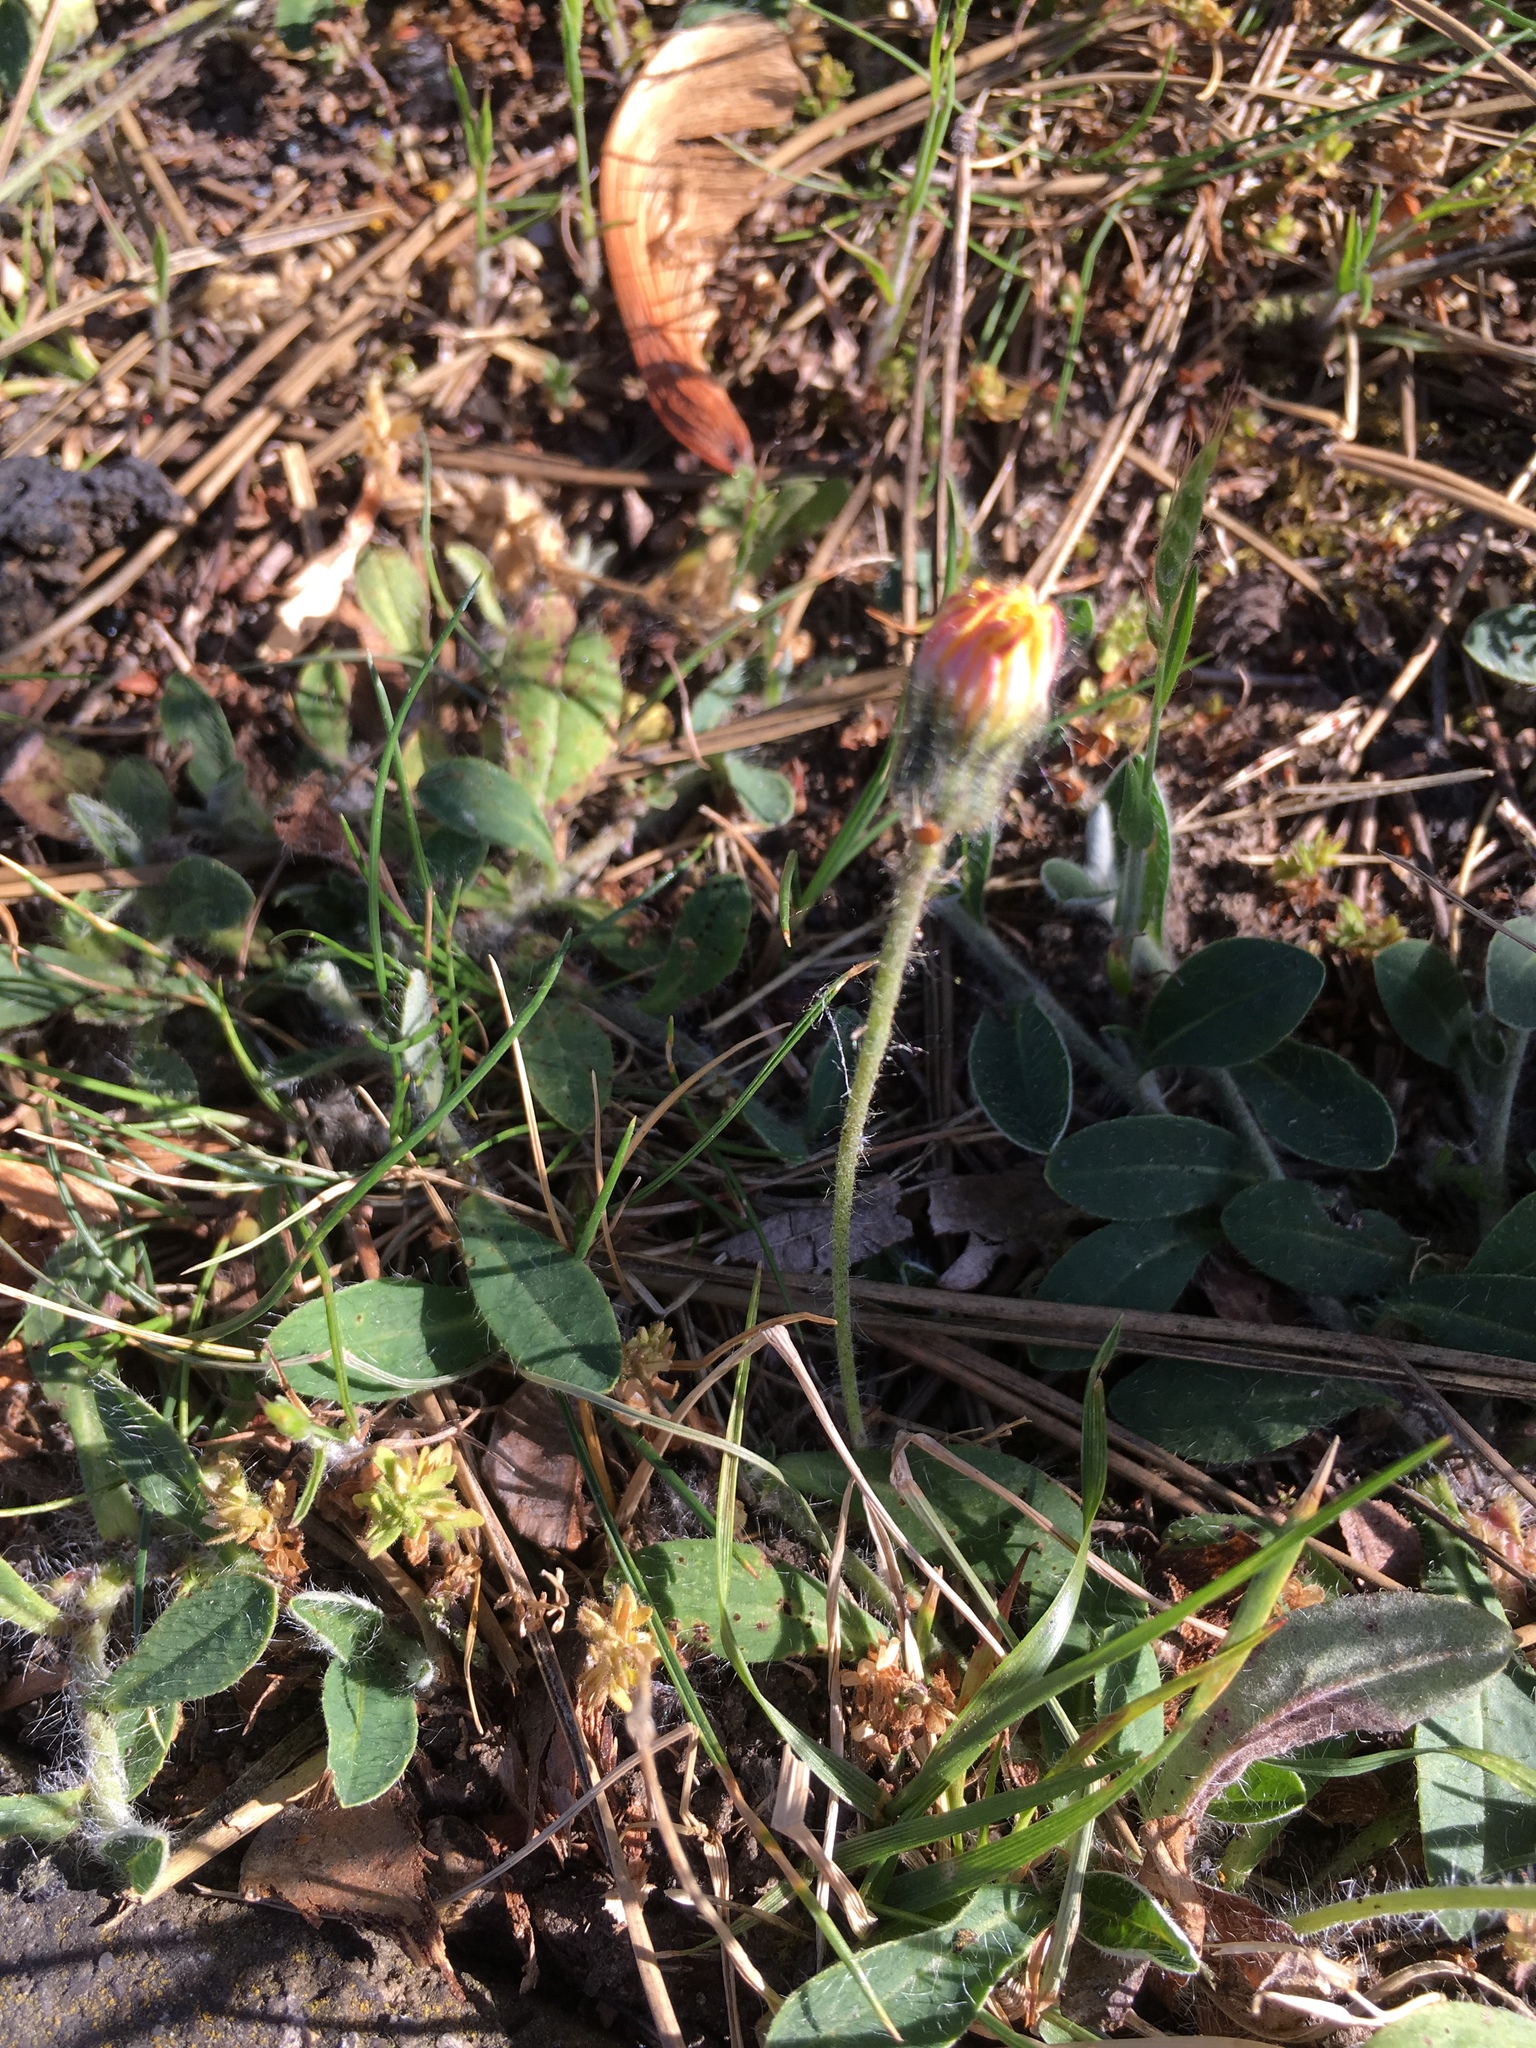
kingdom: Plantae
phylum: Tracheophyta
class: Magnoliopsida
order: Asterales
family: Asteraceae
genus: Pilosella
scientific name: Pilosella officinarum
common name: Mouse-ear hawkweed
